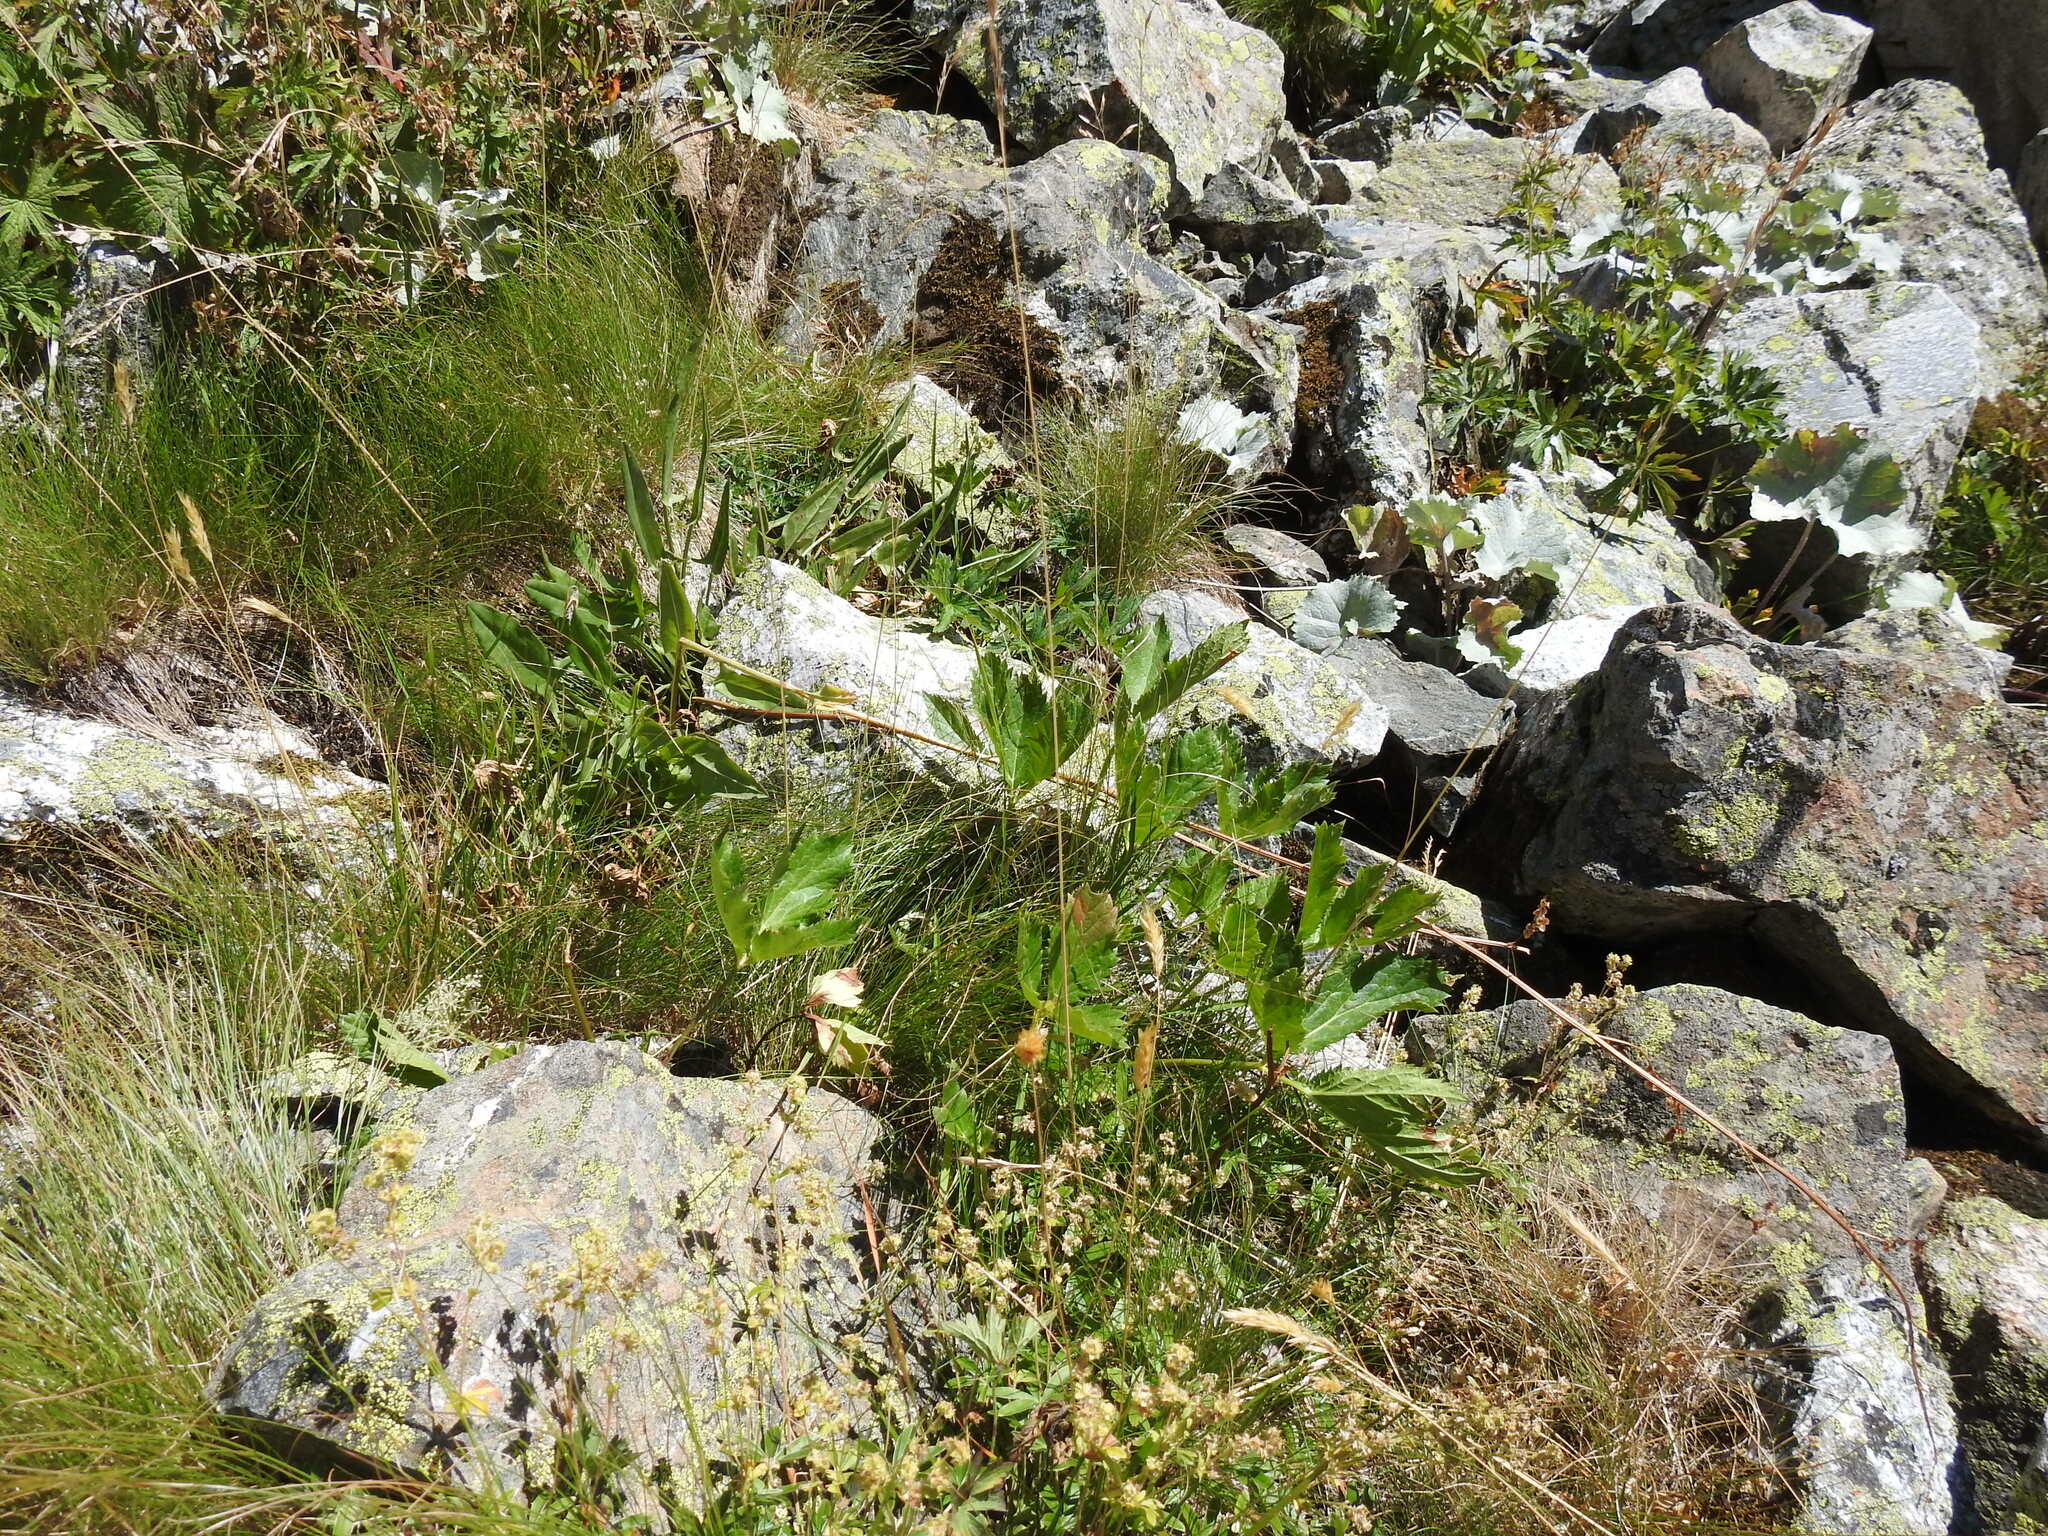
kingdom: Plantae
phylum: Tracheophyta
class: Magnoliopsida
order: Caryophyllales
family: Polygonaceae
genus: Rumex
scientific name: Rumex acetosa
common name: Garden sorrel
